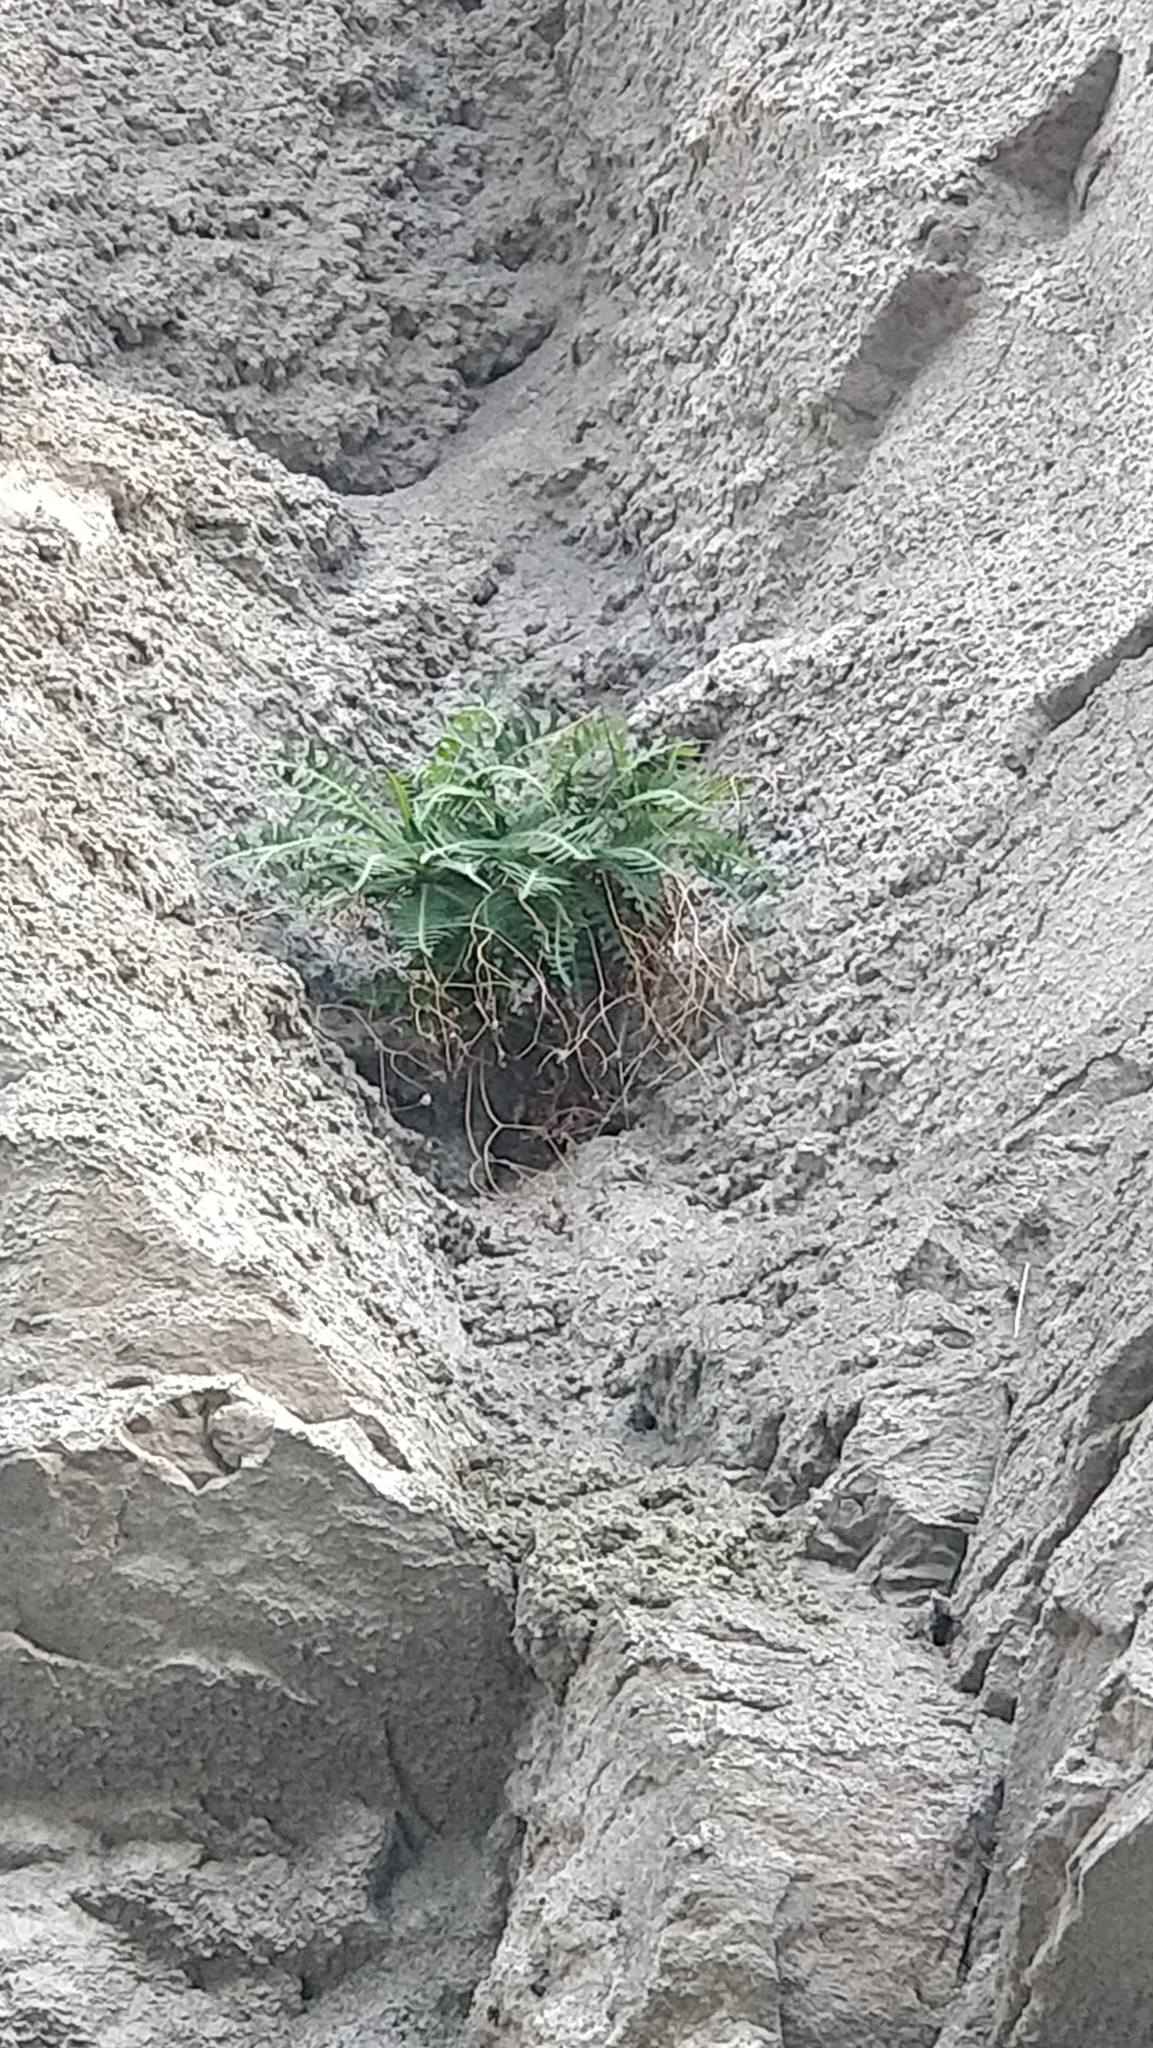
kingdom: Plantae
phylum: Tracheophyta
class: Magnoliopsida
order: Asterales
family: Asteraceae
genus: Sonchus
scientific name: Sonchus ustulatus
